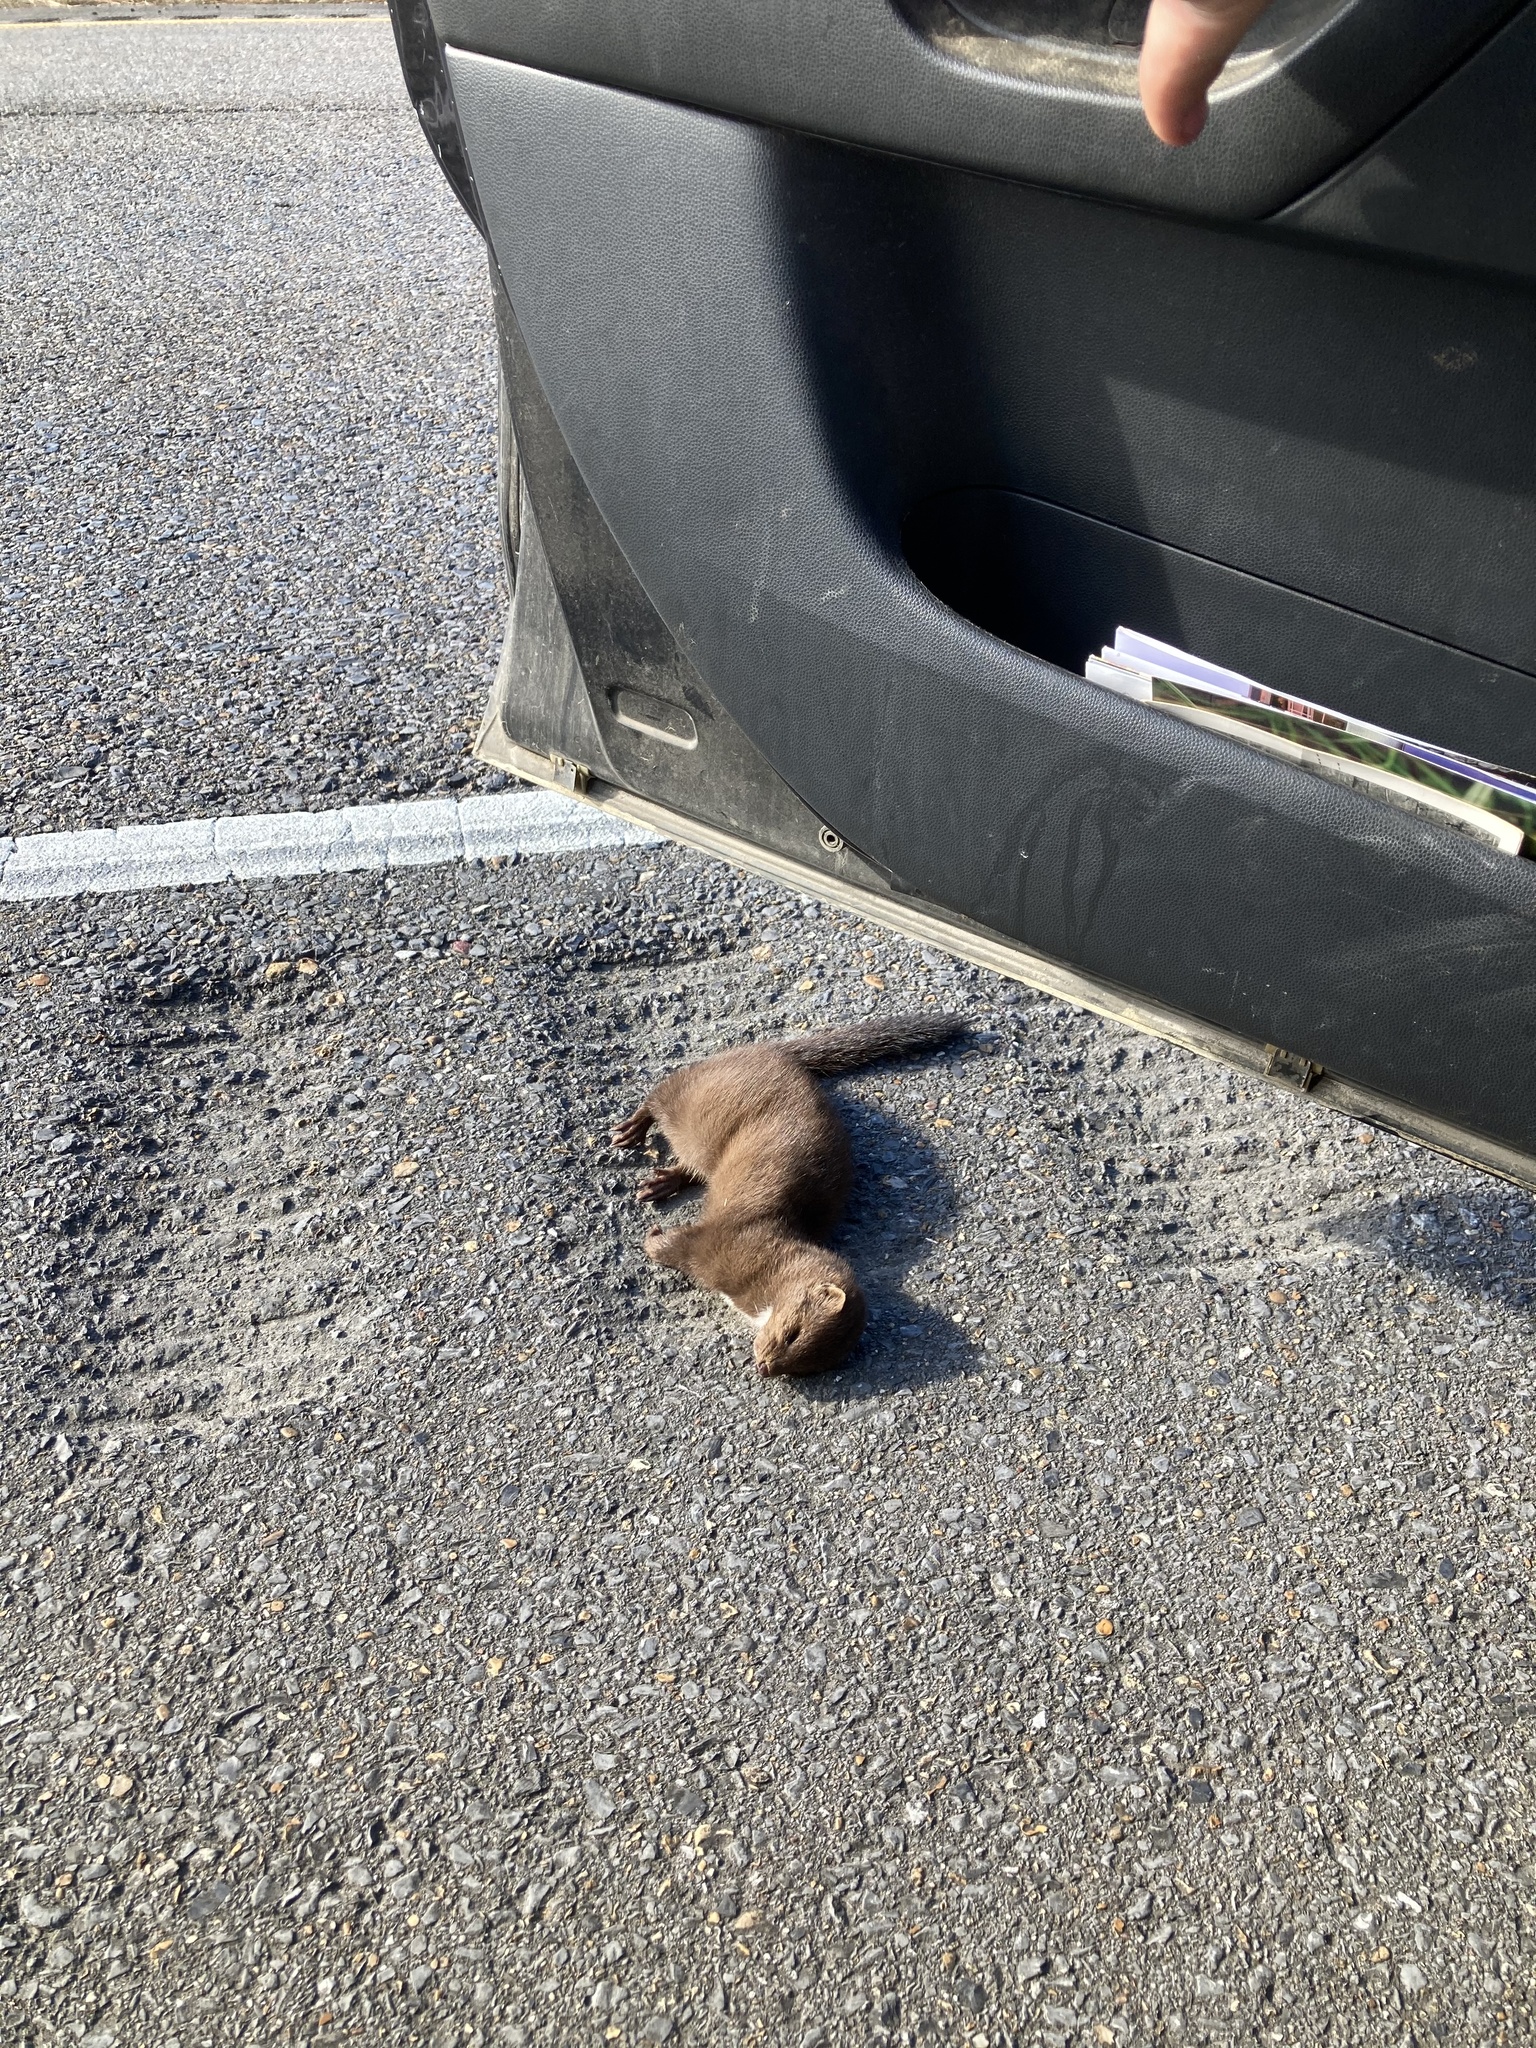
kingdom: Animalia
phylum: Chordata
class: Mammalia
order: Carnivora
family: Mustelidae
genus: Mustela
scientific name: Mustela
